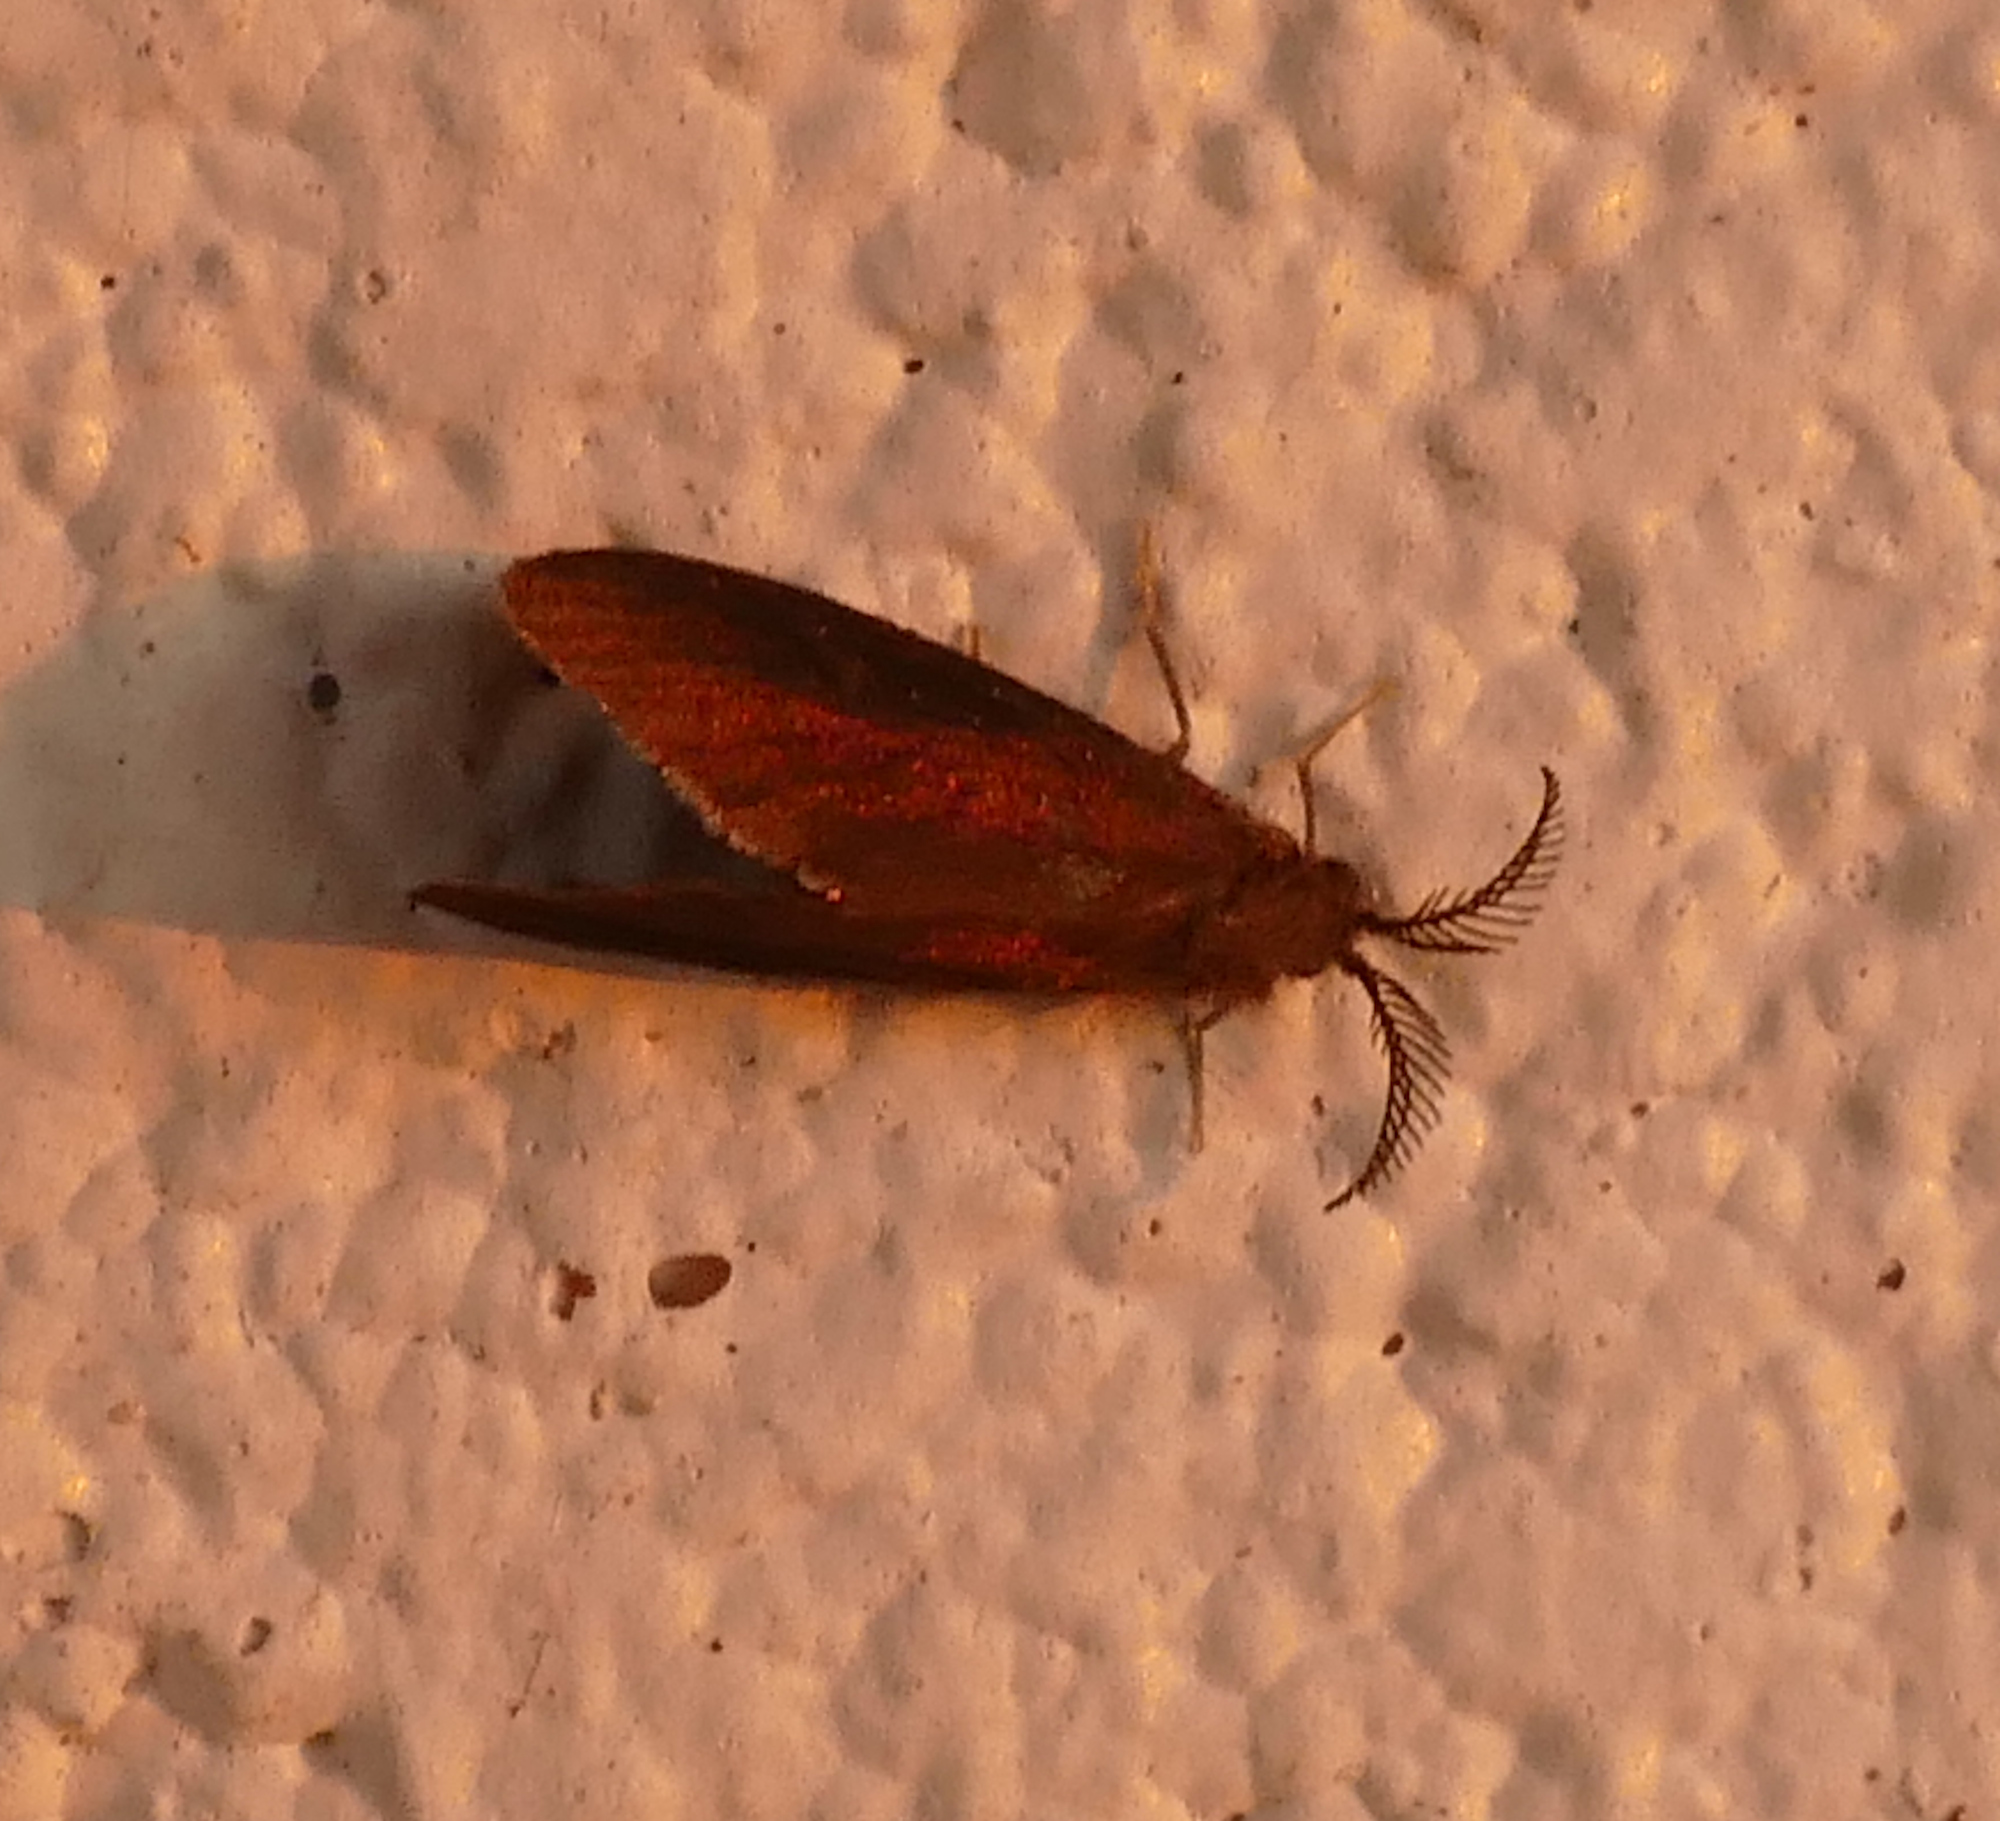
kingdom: Animalia
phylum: Arthropoda
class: Insecta
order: Lepidoptera
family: Psychidae
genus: Cryptothelea
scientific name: Cryptothelea gloverii
